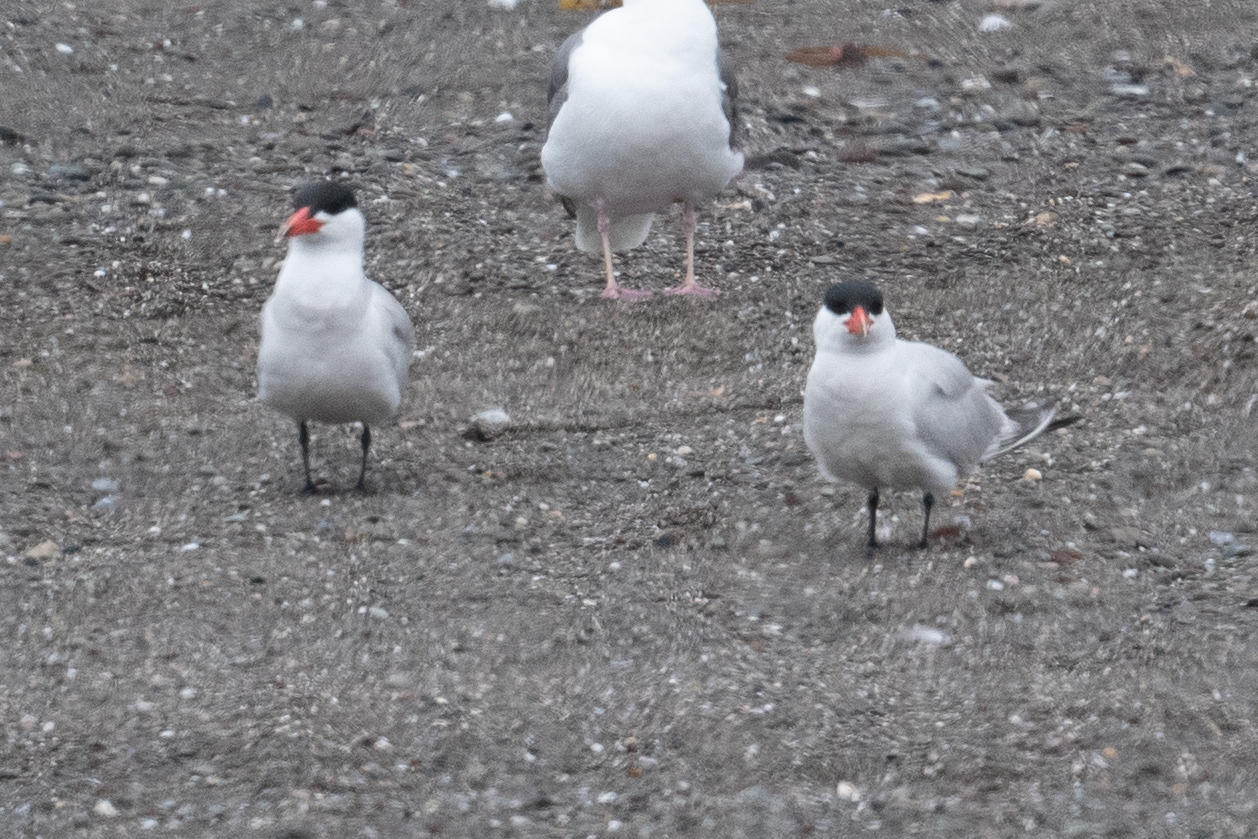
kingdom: Animalia
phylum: Chordata
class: Aves
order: Charadriiformes
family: Laridae
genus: Hydroprogne
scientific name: Hydroprogne caspia
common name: Caspian tern
